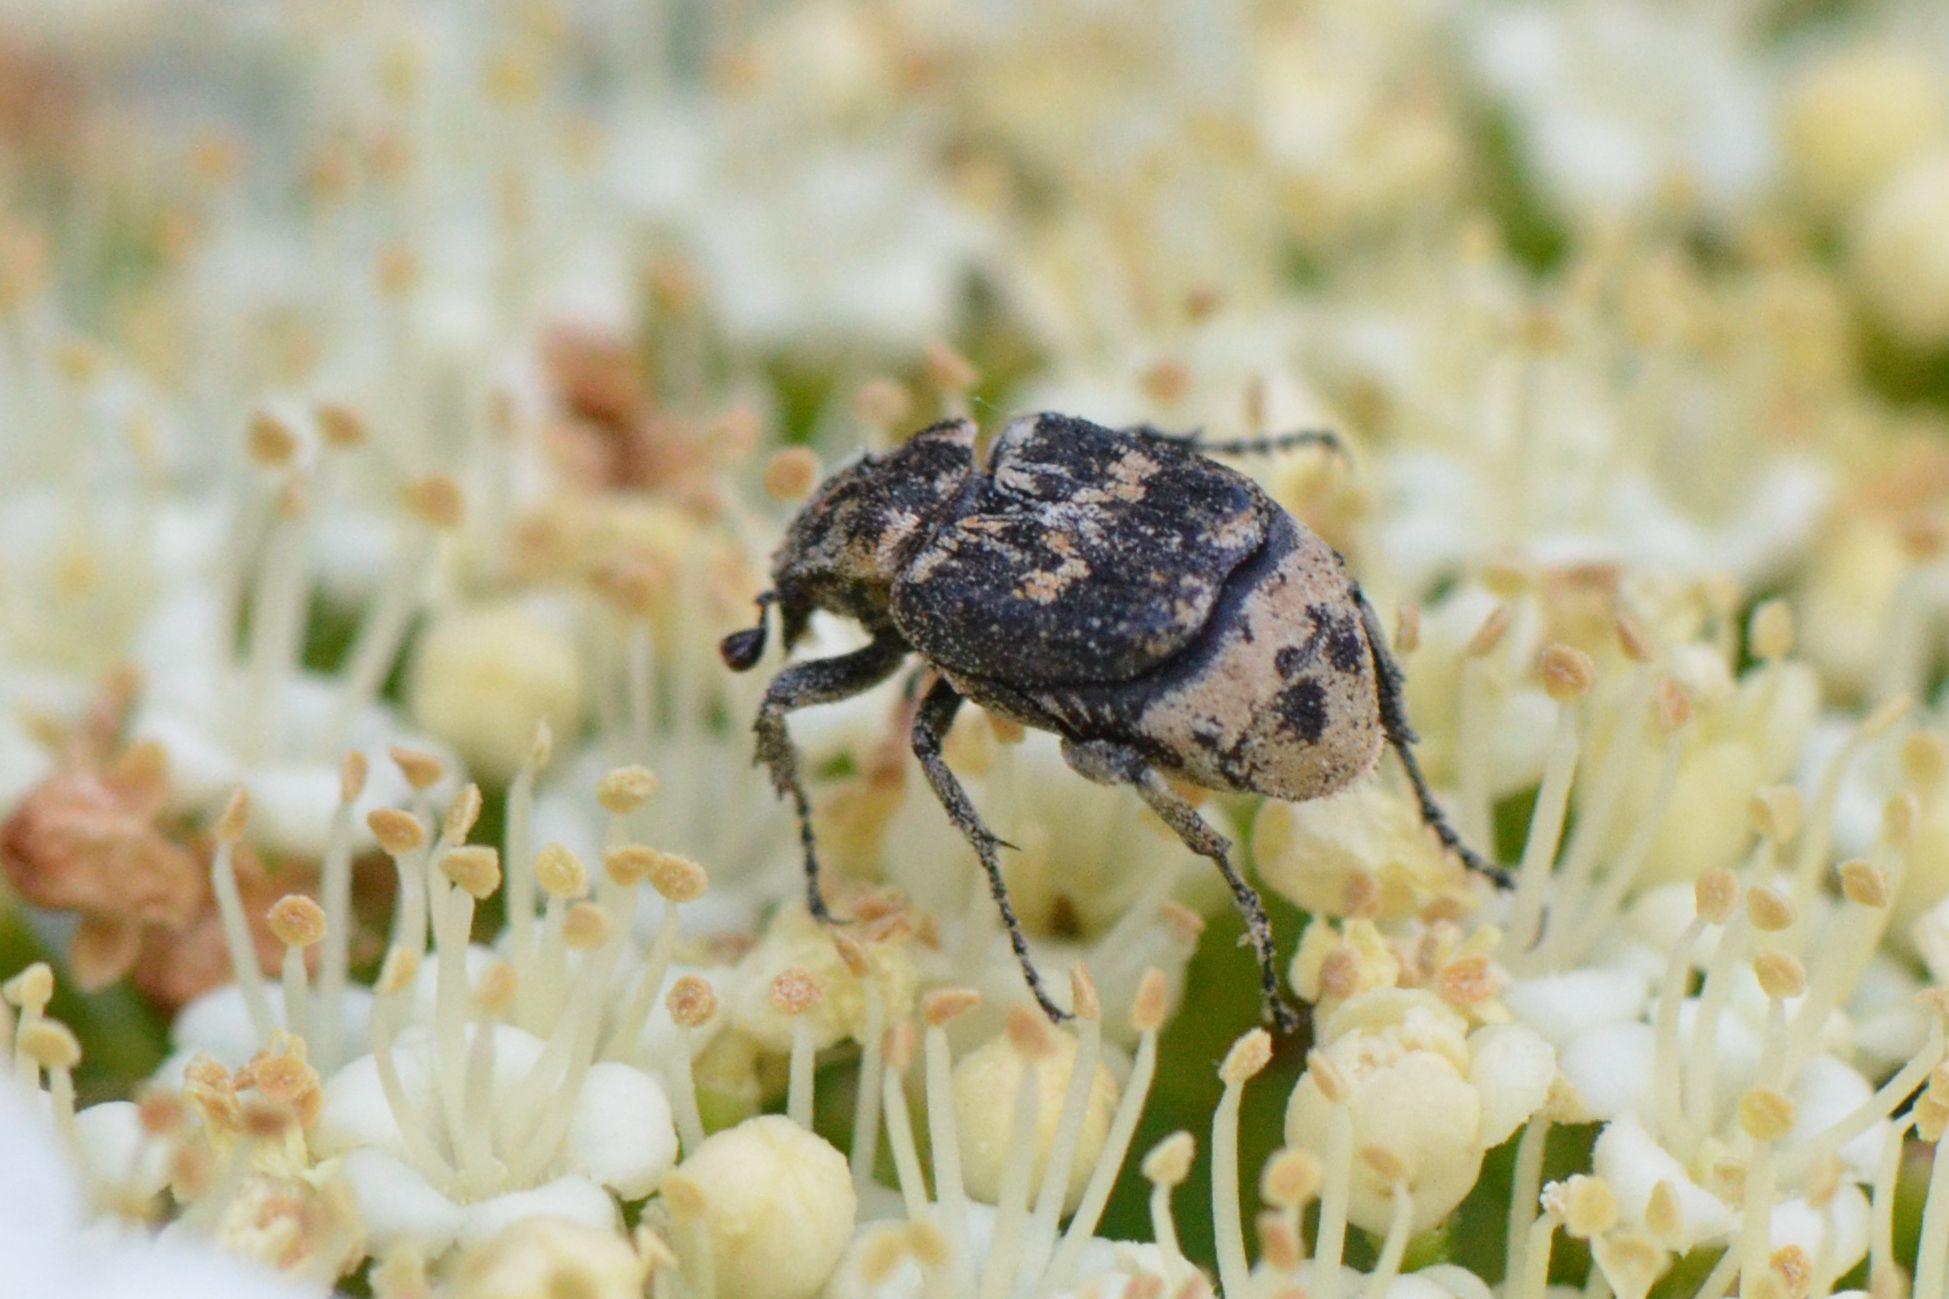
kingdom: Animalia
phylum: Arthropoda
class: Insecta
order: Coleoptera
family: Scarabaeidae
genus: Valgus
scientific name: Valgus hemipterus
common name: Bug flower chafer
